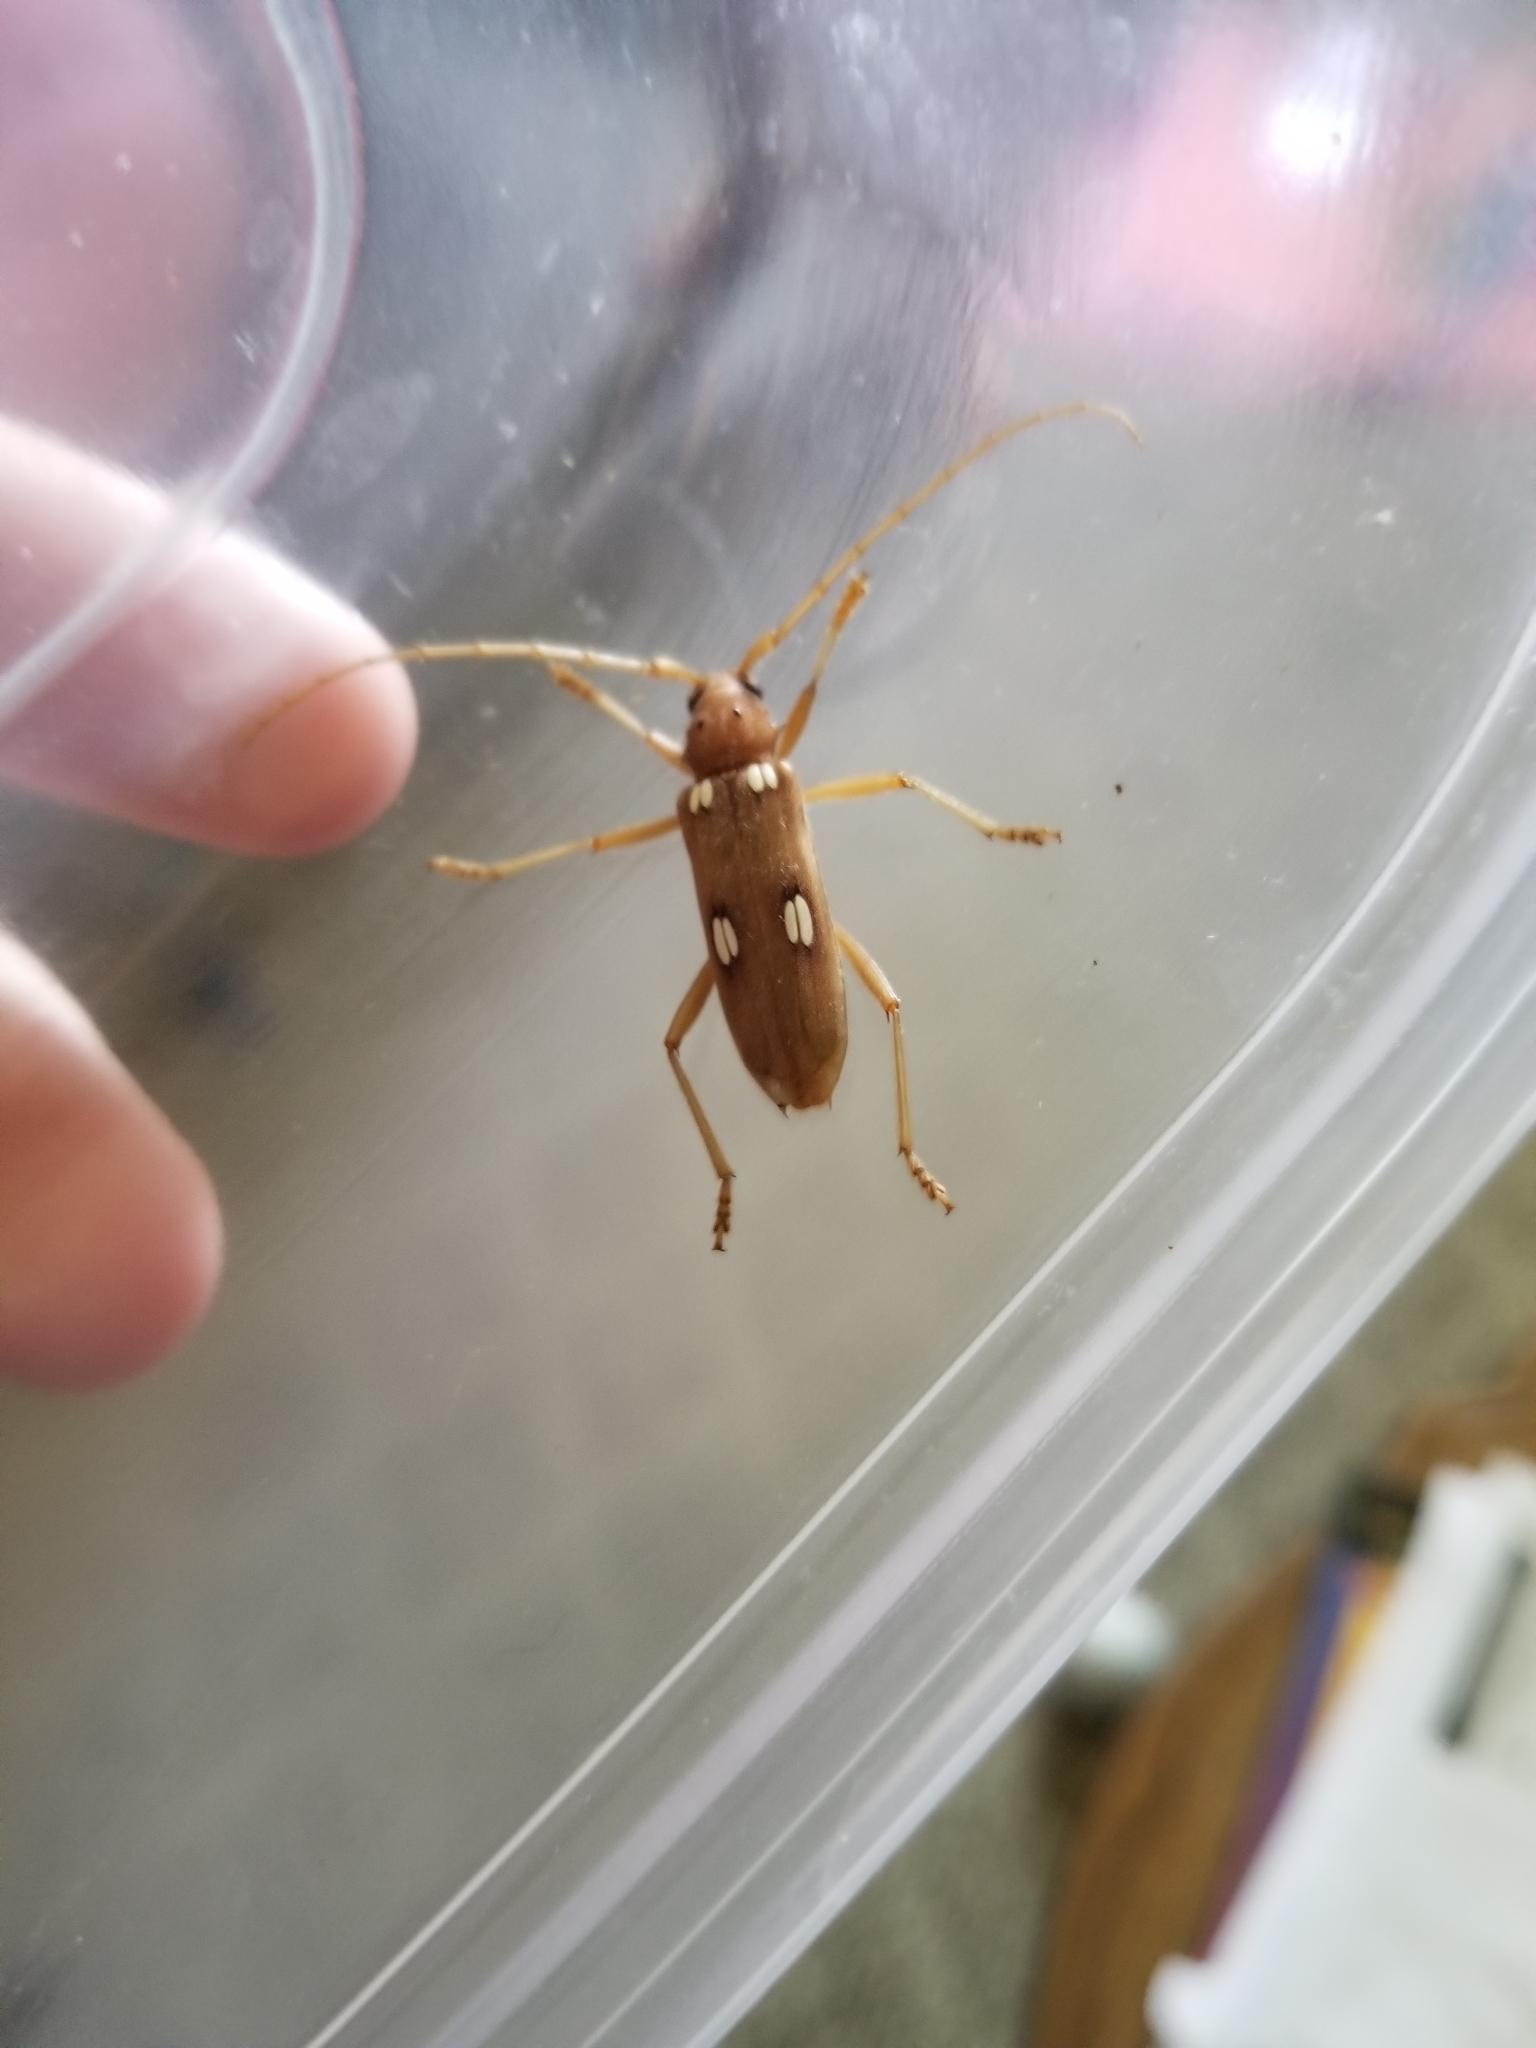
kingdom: Animalia
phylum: Arthropoda
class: Insecta
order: Coleoptera
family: Cerambycidae
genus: Eburia
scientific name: Eburia quadrigeminata
